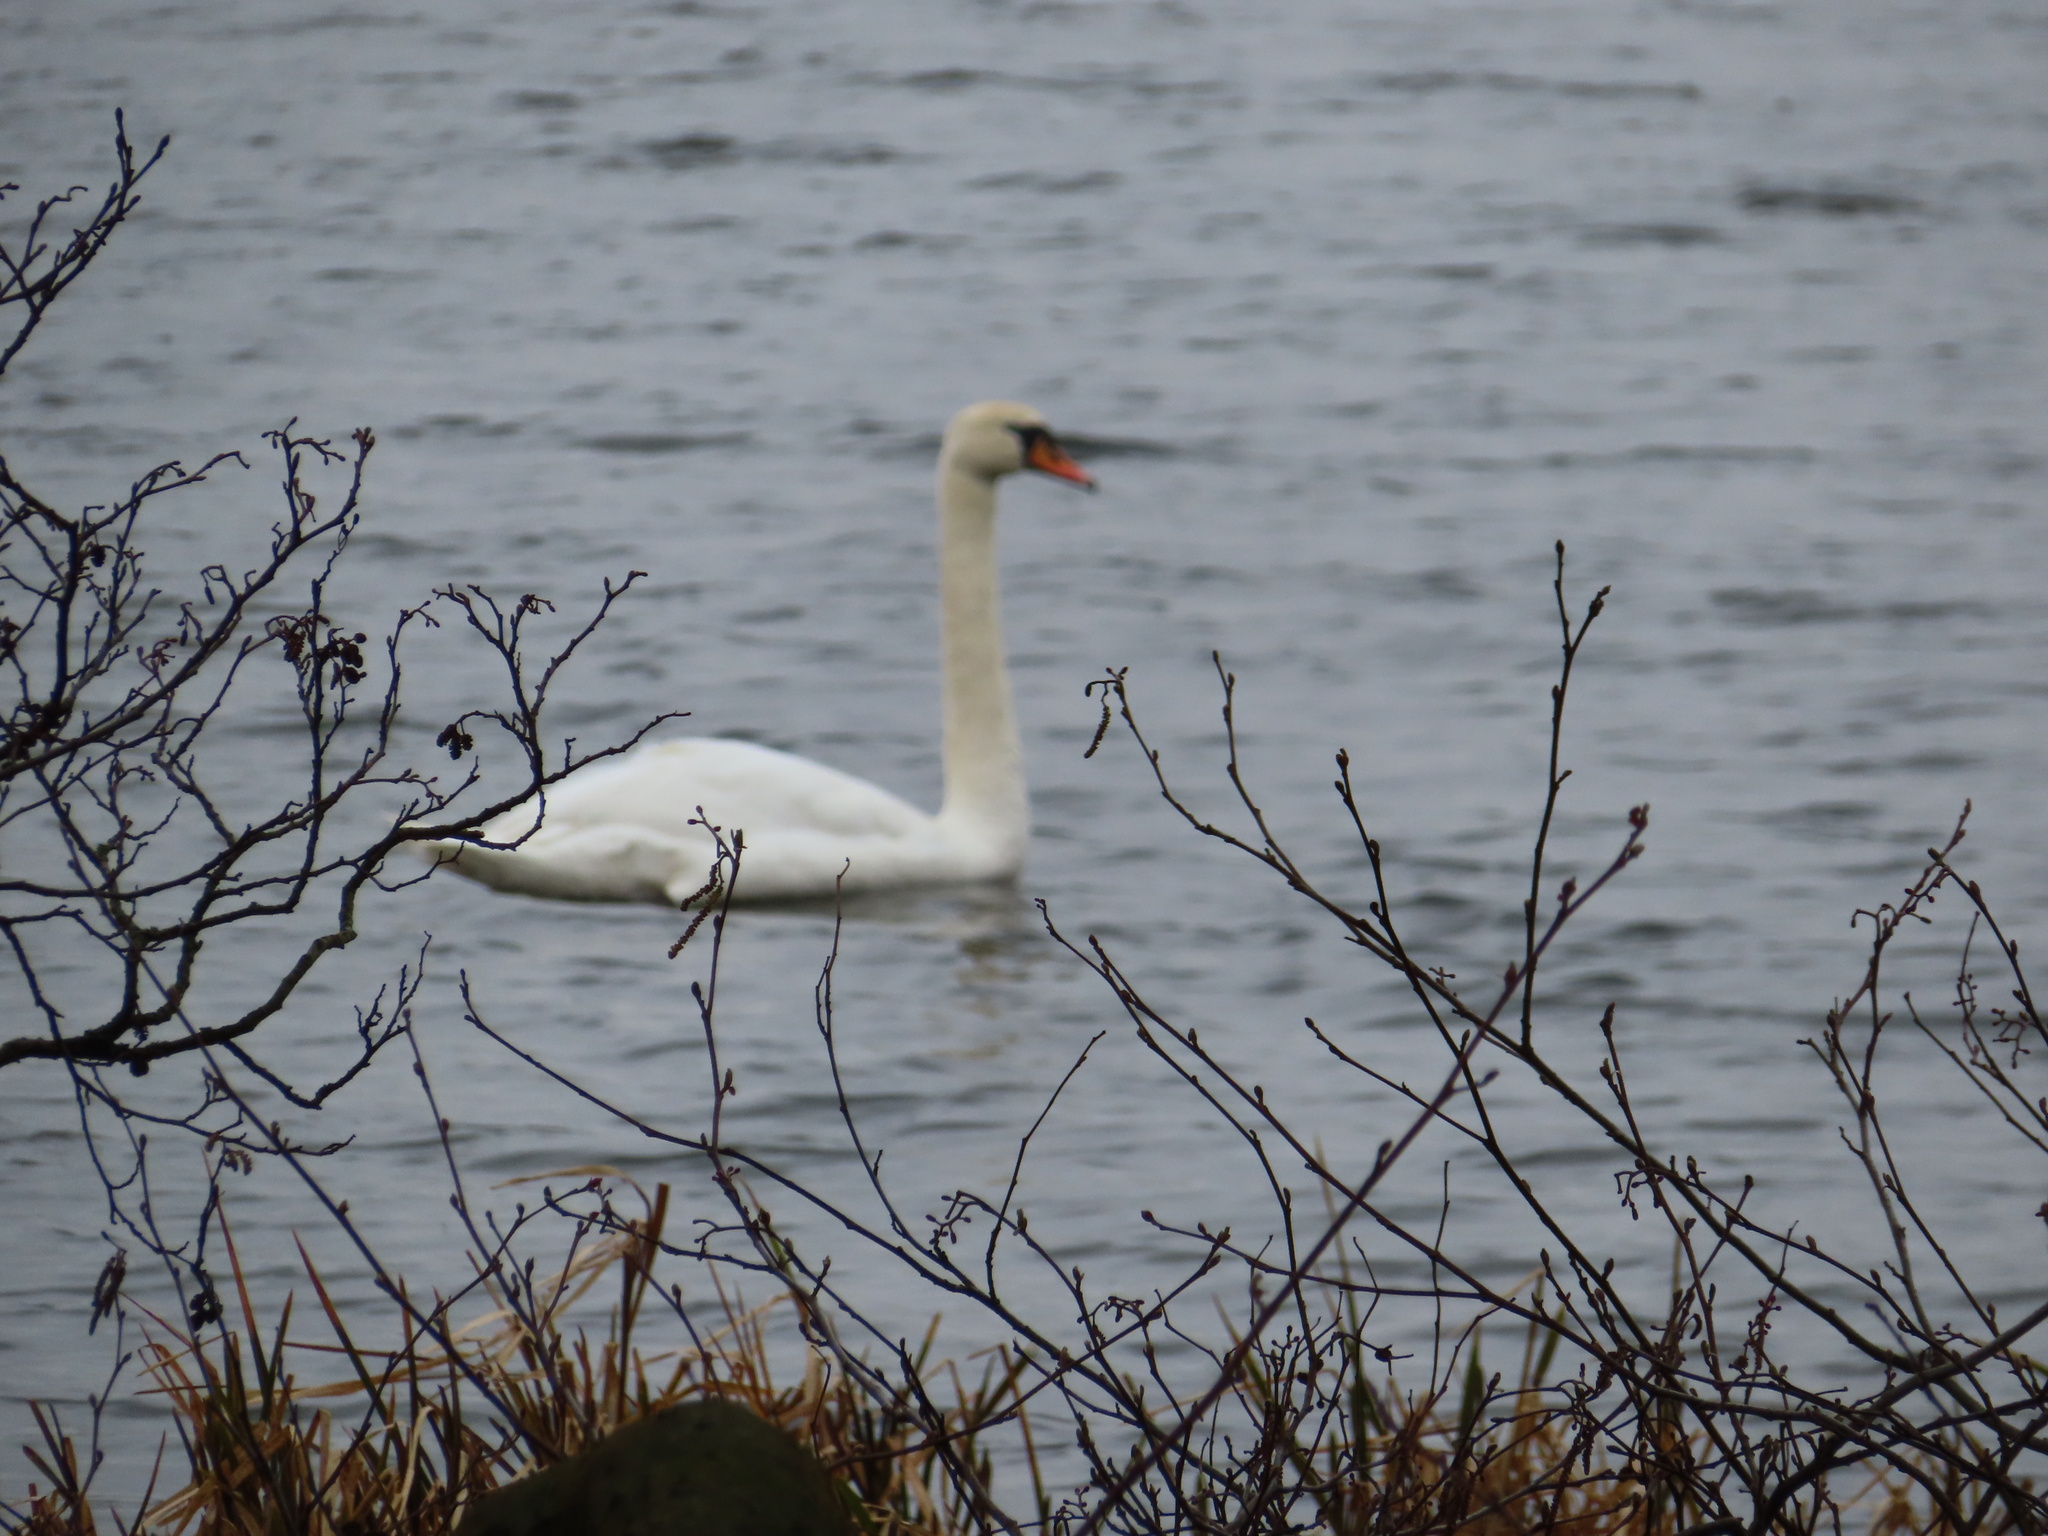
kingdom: Animalia
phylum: Chordata
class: Aves
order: Anseriformes
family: Anatidae
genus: Cygnus
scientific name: Cygnus olor
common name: Mute swan
